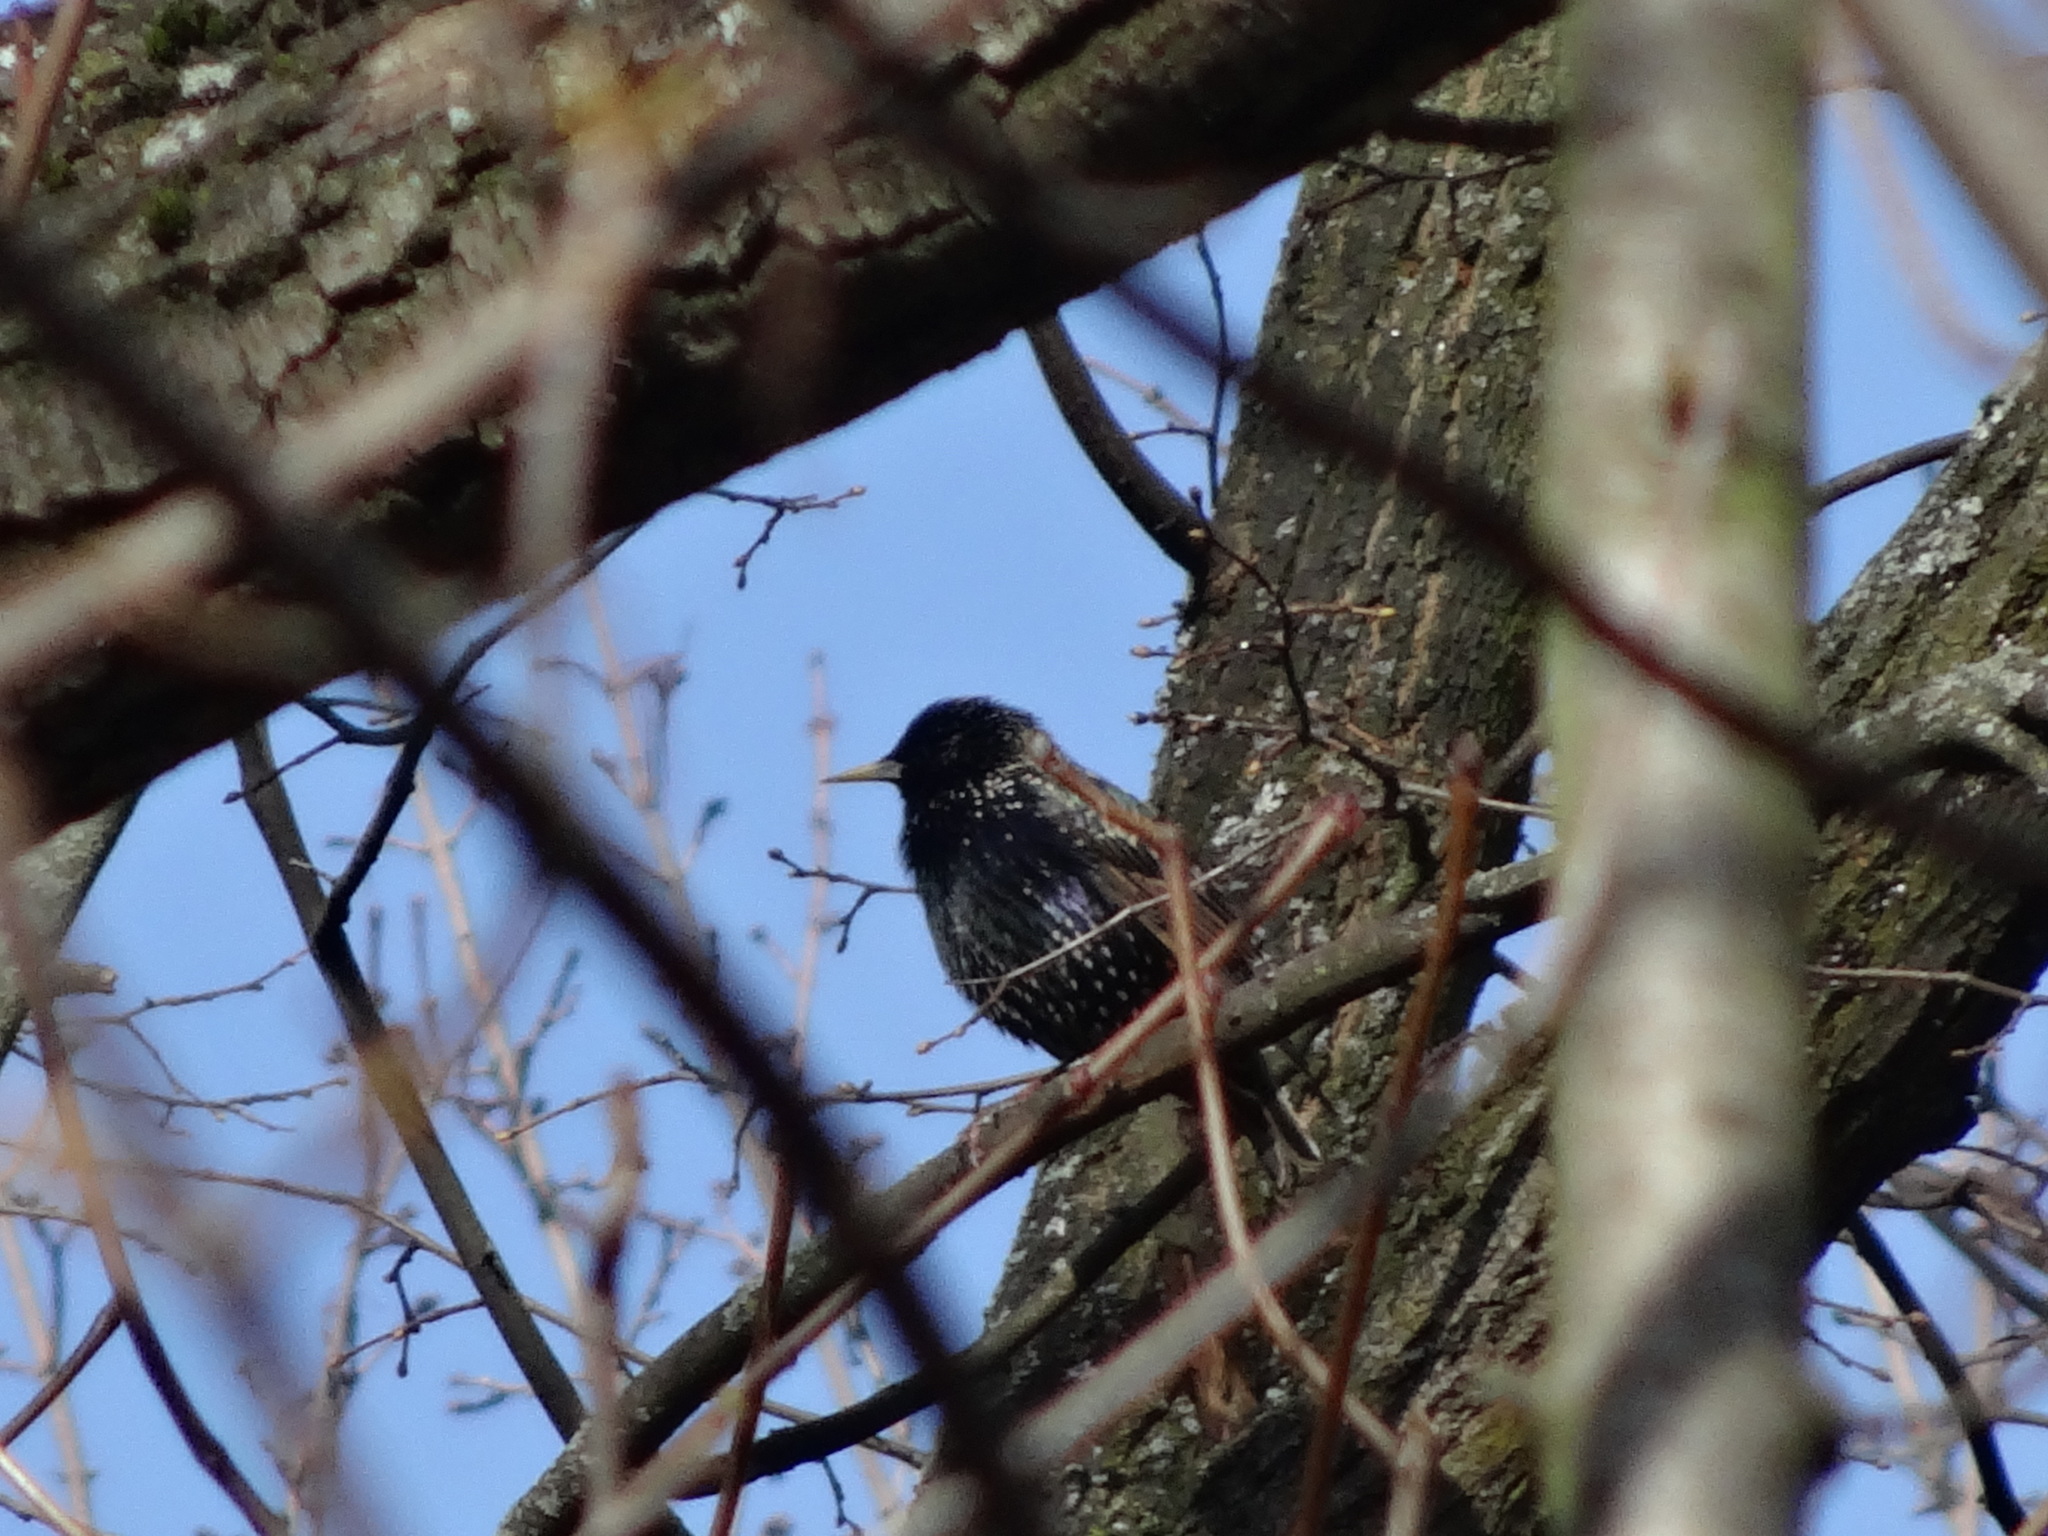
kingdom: Animalia
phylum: Chordata
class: Aves
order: Passeriformes
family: Sturnidae
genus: Sturnus
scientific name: Sturnus vulgaris
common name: Common starling
